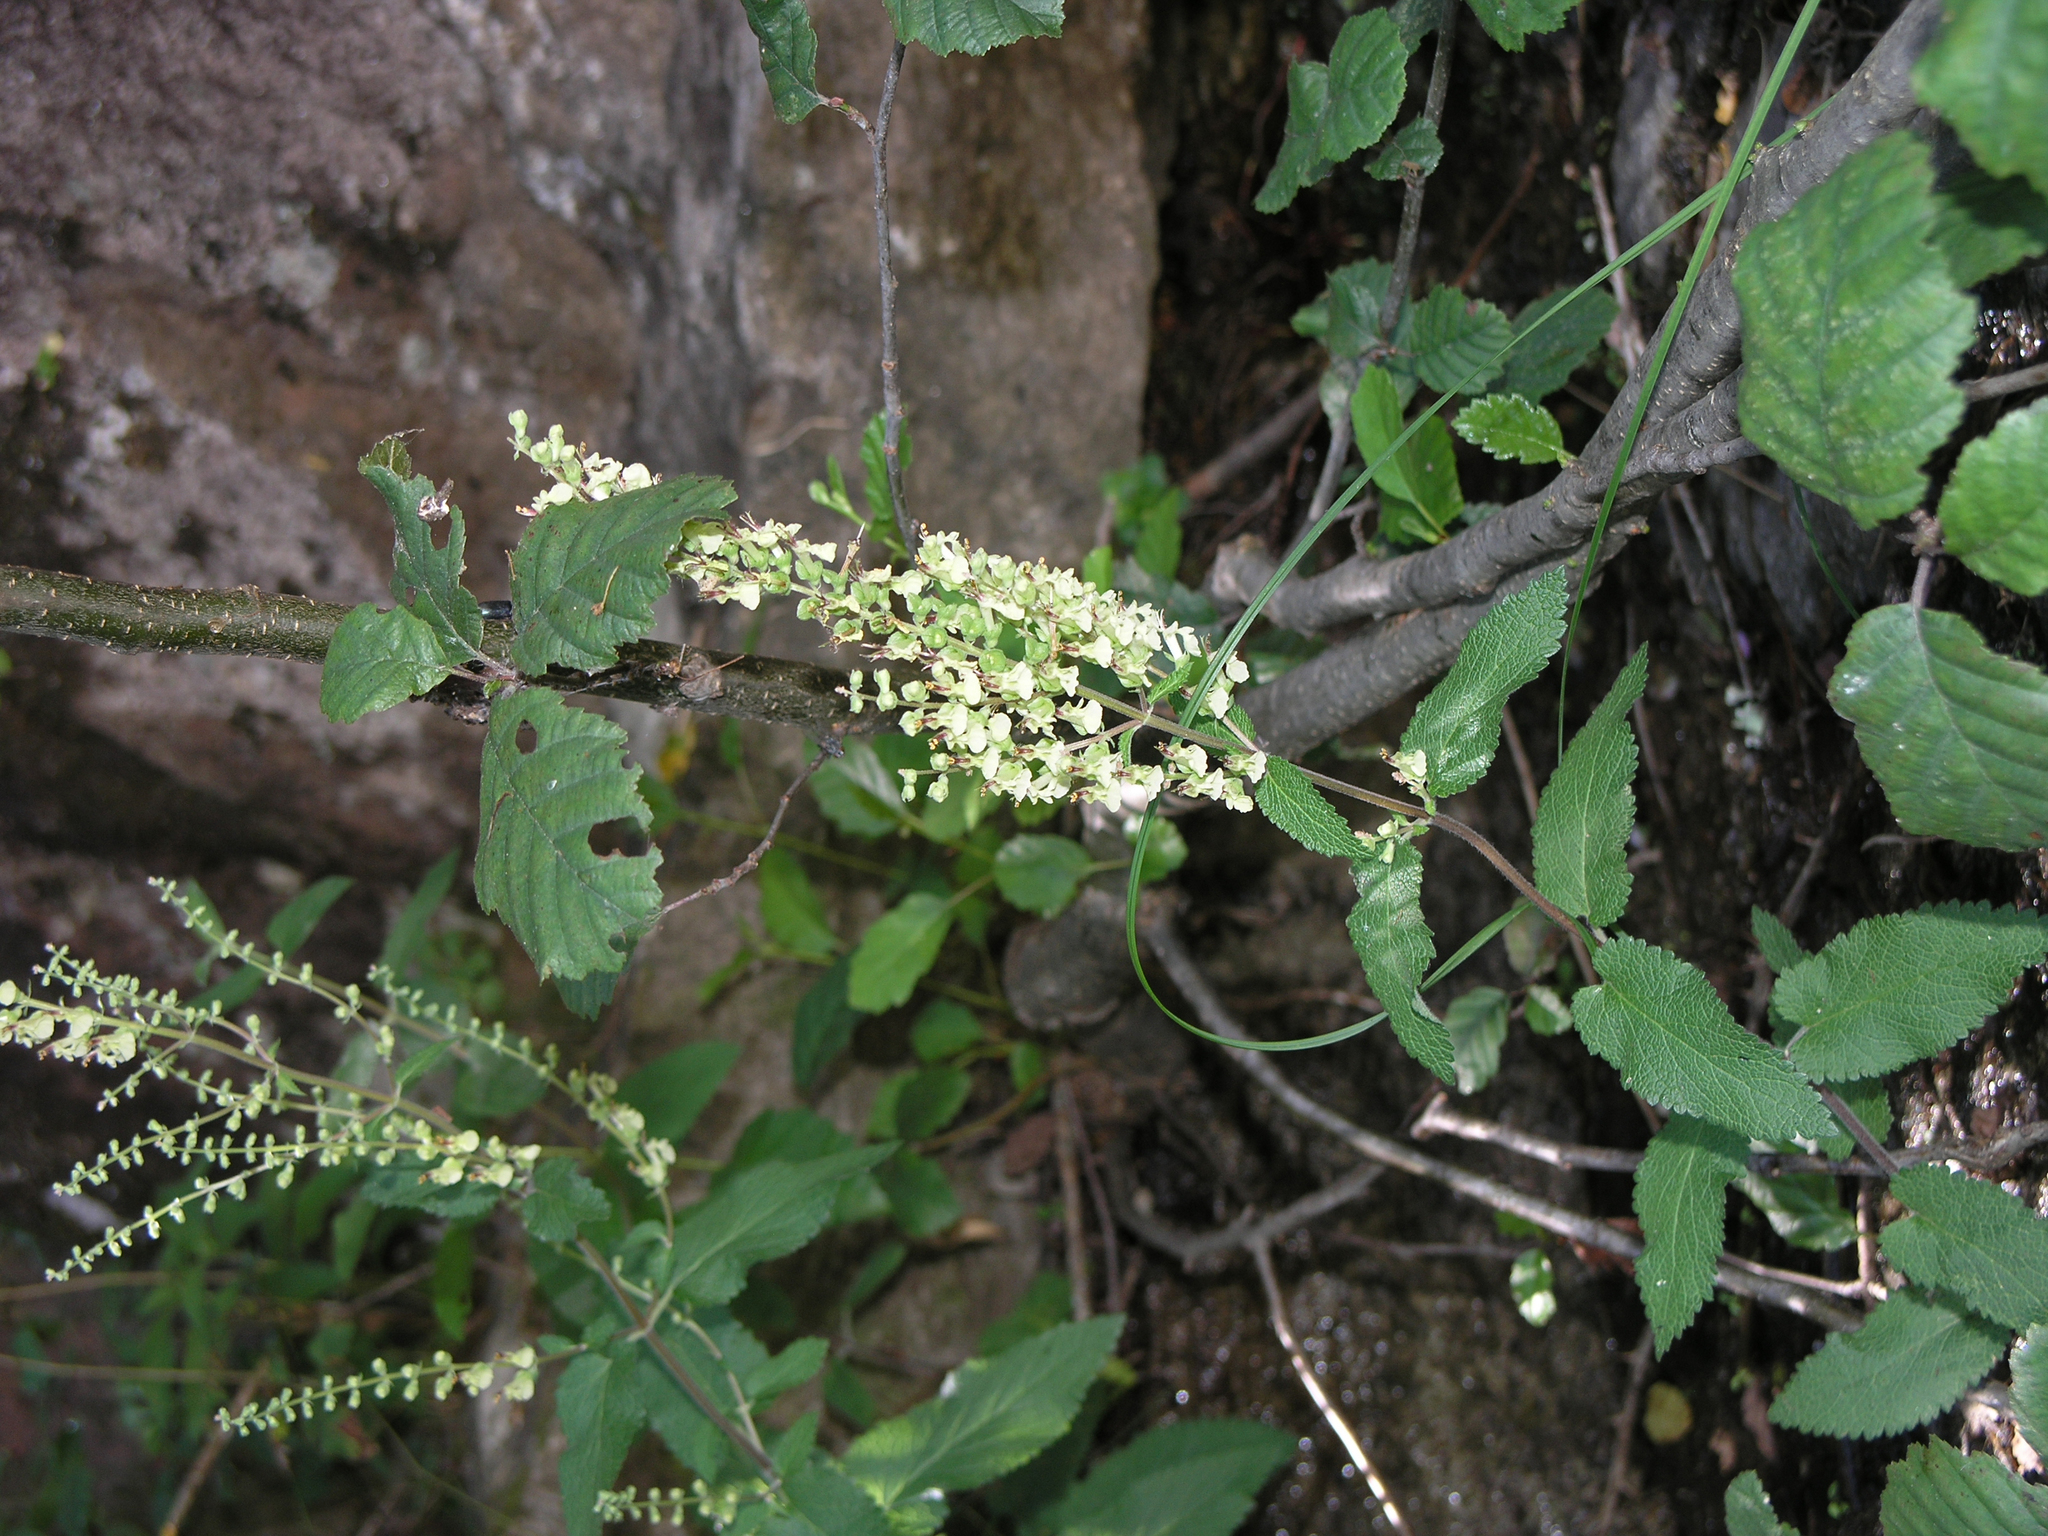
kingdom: Plantae
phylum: Tracheophyta
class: Magnoliopsida
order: Lamiales
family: Lamiaceae
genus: Teucrium
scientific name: Teucrium scorodonia
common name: Woodland germander
